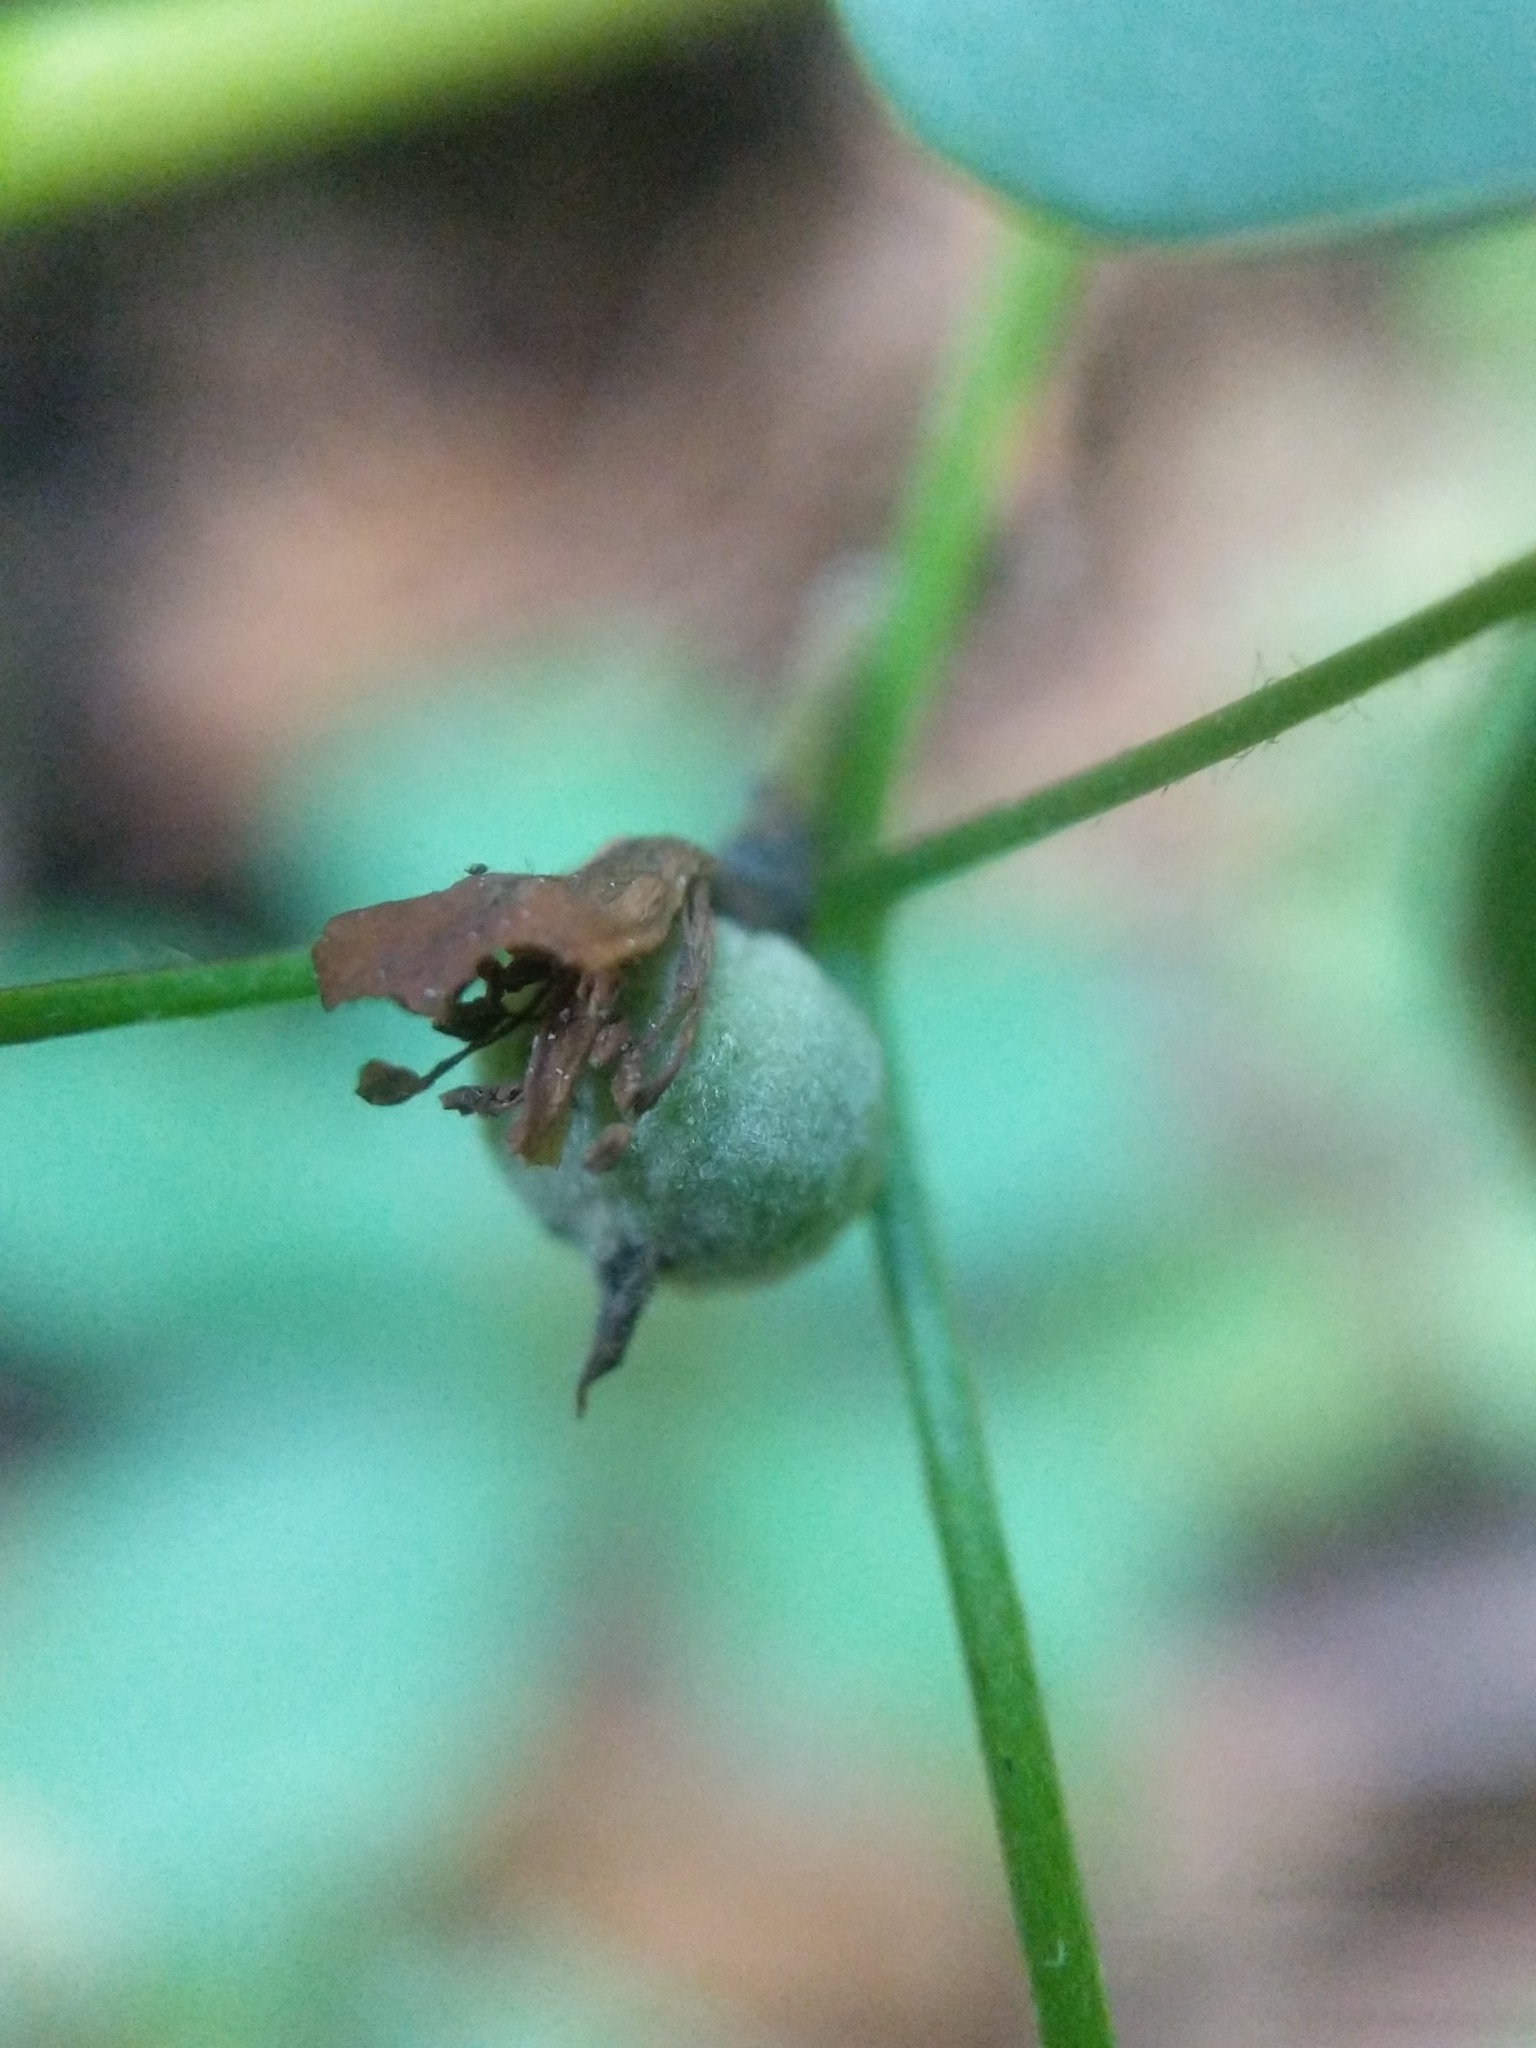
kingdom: Plantae
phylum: Tracheophyta
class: Magnoliopsida
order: Ranunculales
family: Ranunculaceae
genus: Thalictrum
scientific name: Thalictrum pubescens
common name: King-of-the-meadow
